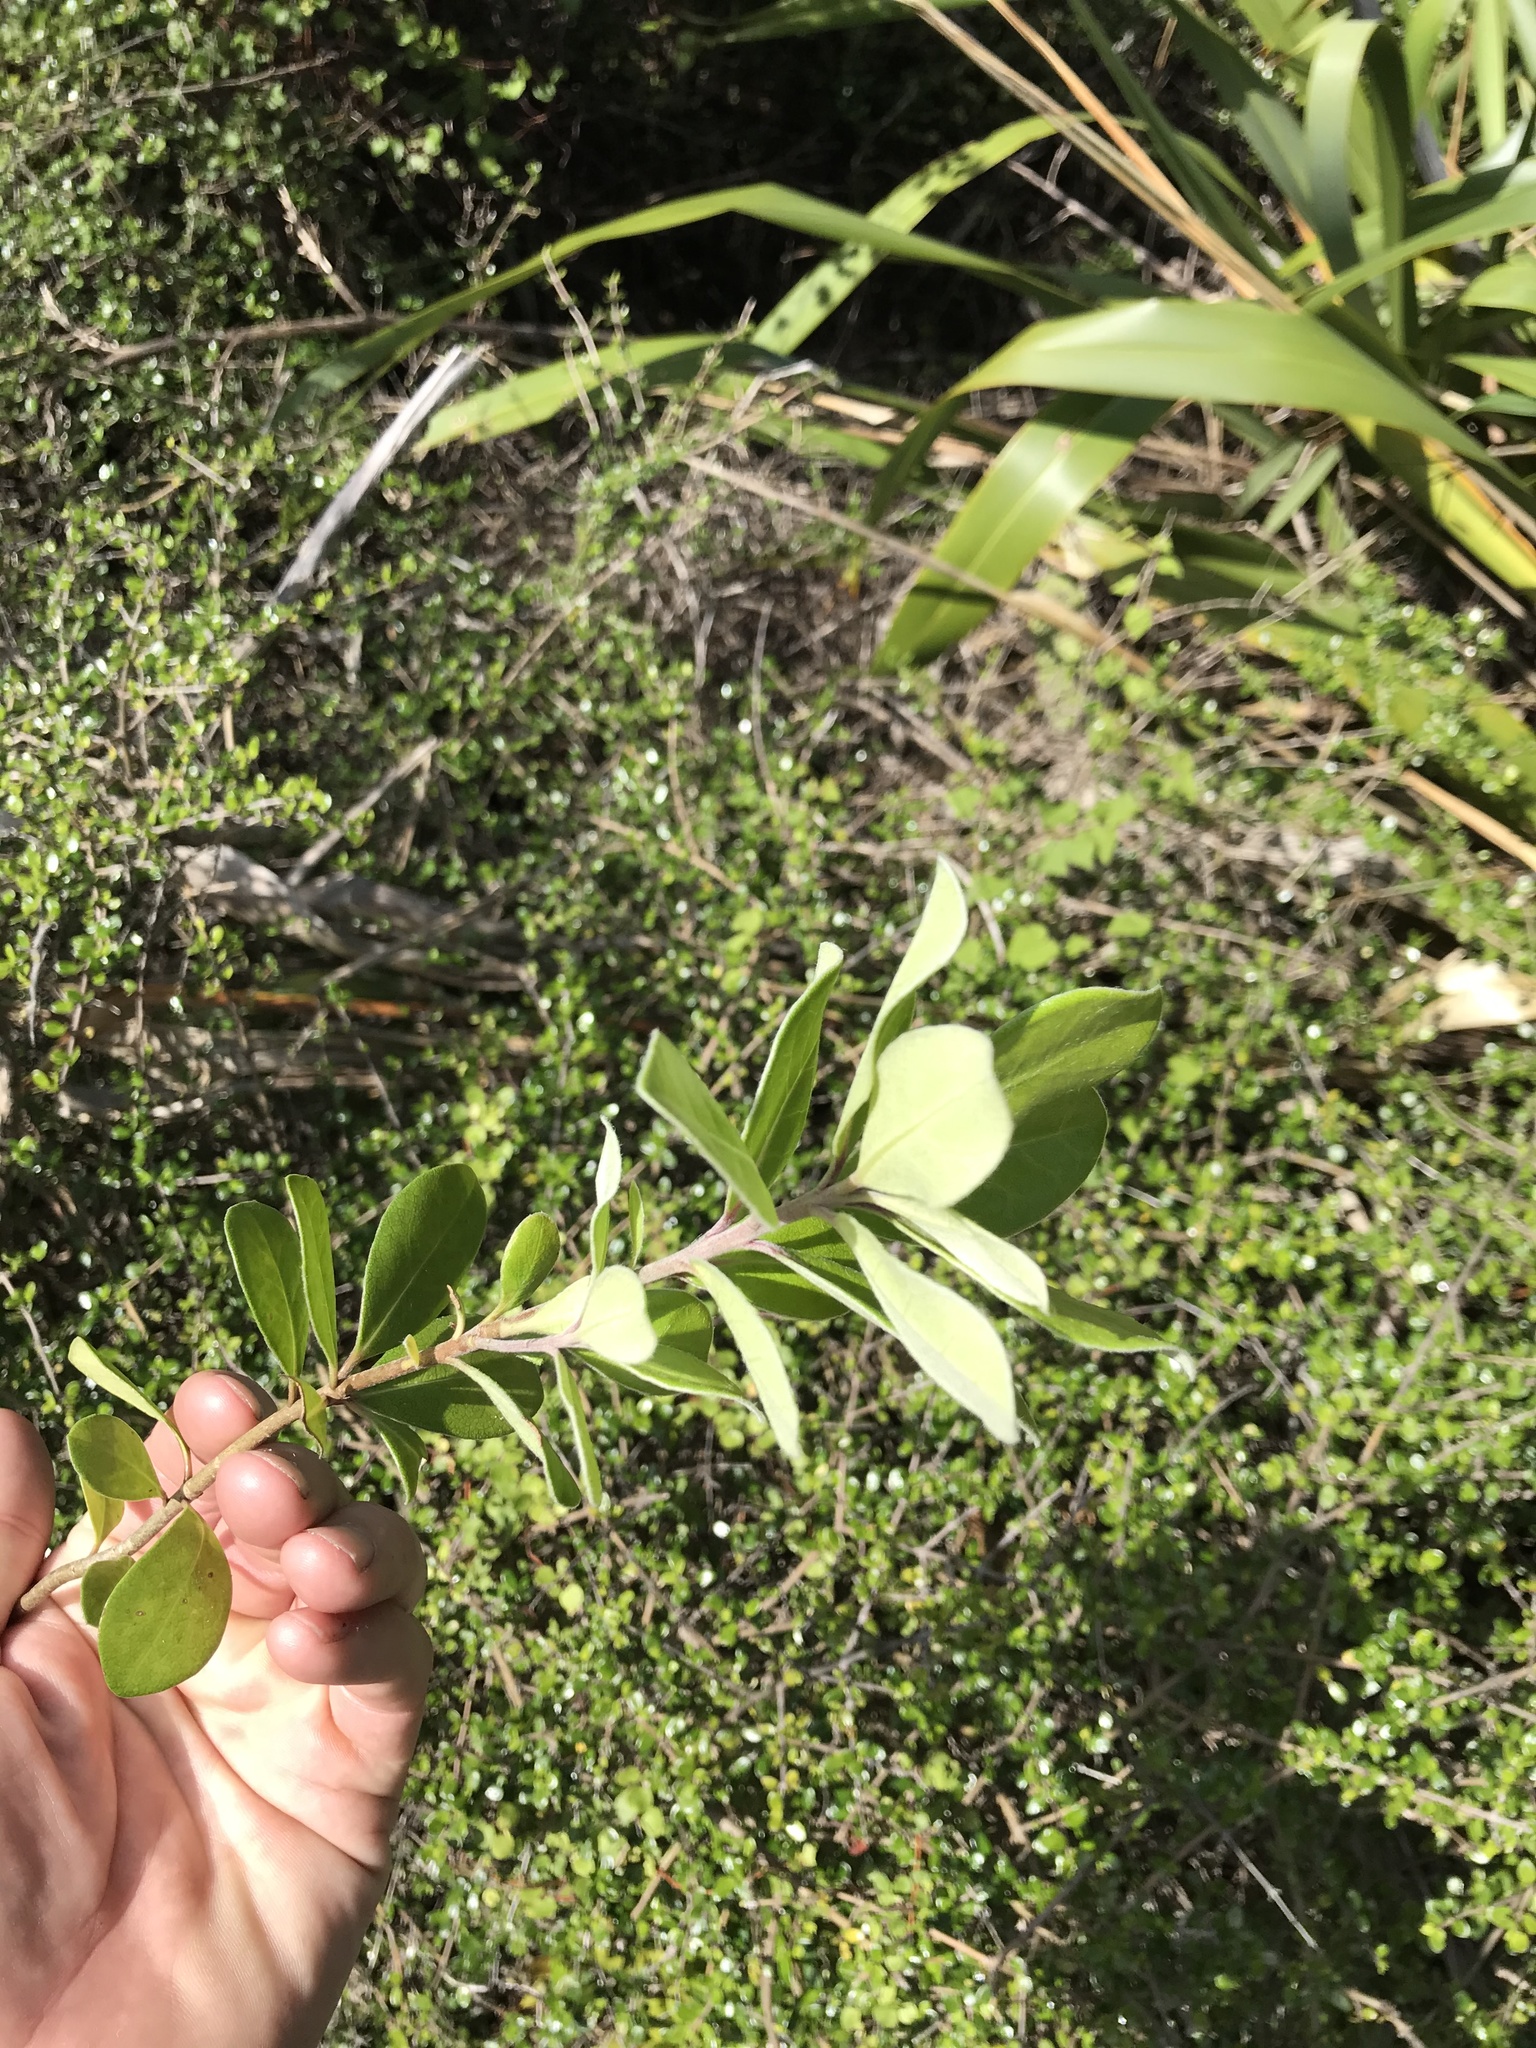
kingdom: Plantae
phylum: Tracheophyta
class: Magnoliopsida
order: Apiales
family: Pittosporaceae
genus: Pittosporum
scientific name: Pittosporum crassifolium
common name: Karo
